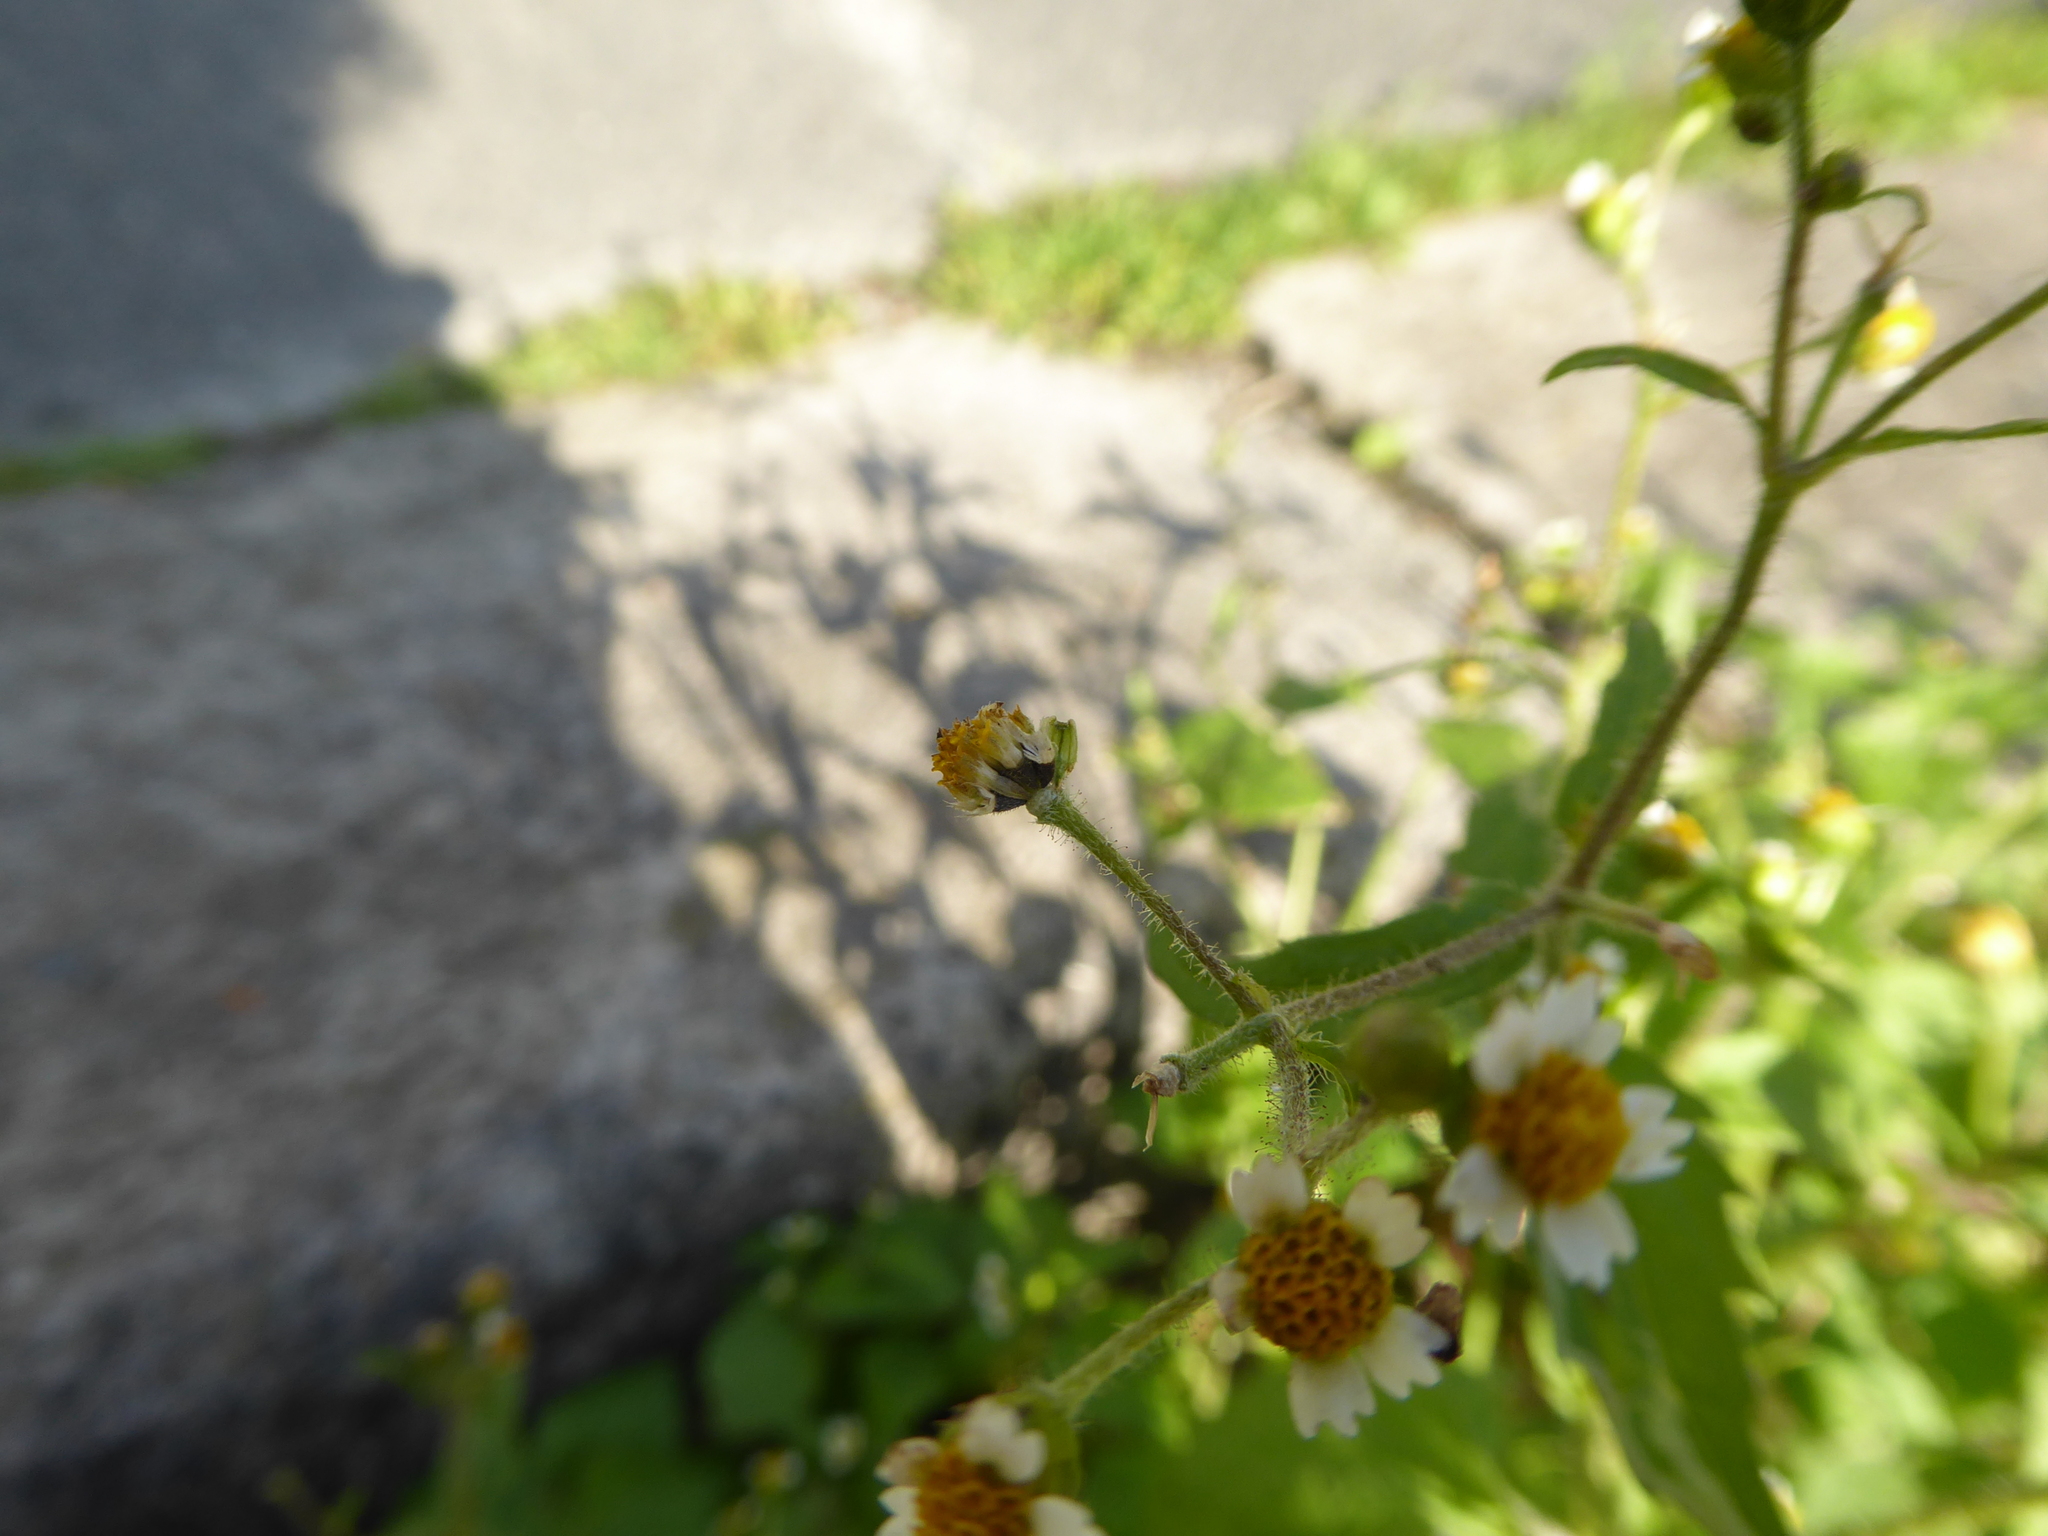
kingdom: Plantae
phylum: Tracheophyta
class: Magnoliopsida
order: Asterales
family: Asteraceae
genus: Galinsoga
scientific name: Galinsoga quadriradiata
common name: Shaggy soldier
